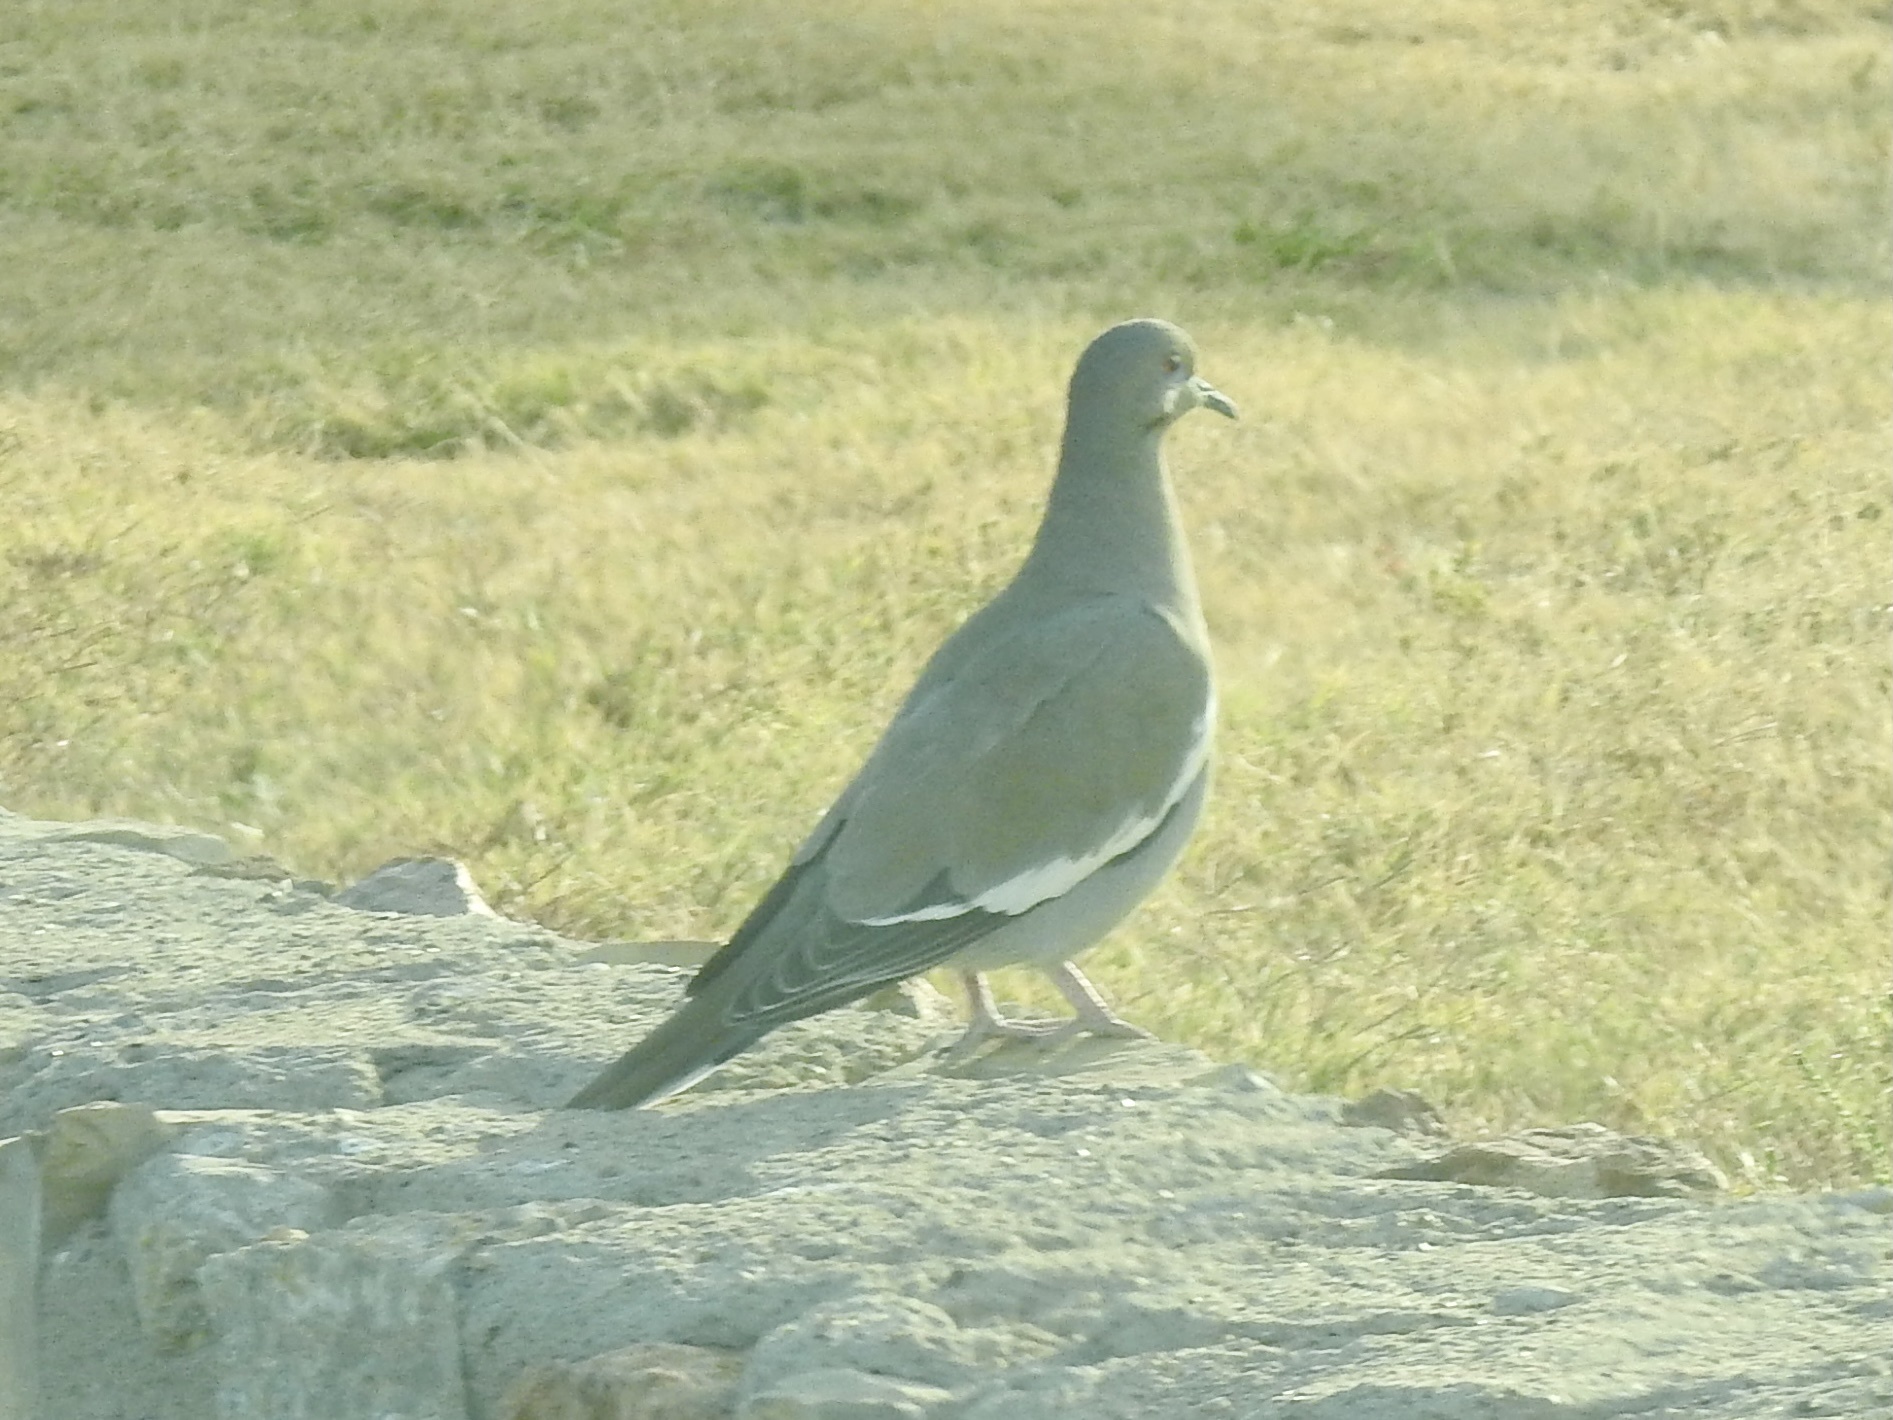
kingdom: Animalia
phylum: Chordata
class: Aves
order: Columbiformes
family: Columbidae
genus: Zenaida
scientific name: Zenaida asiatica
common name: White-winged dove
